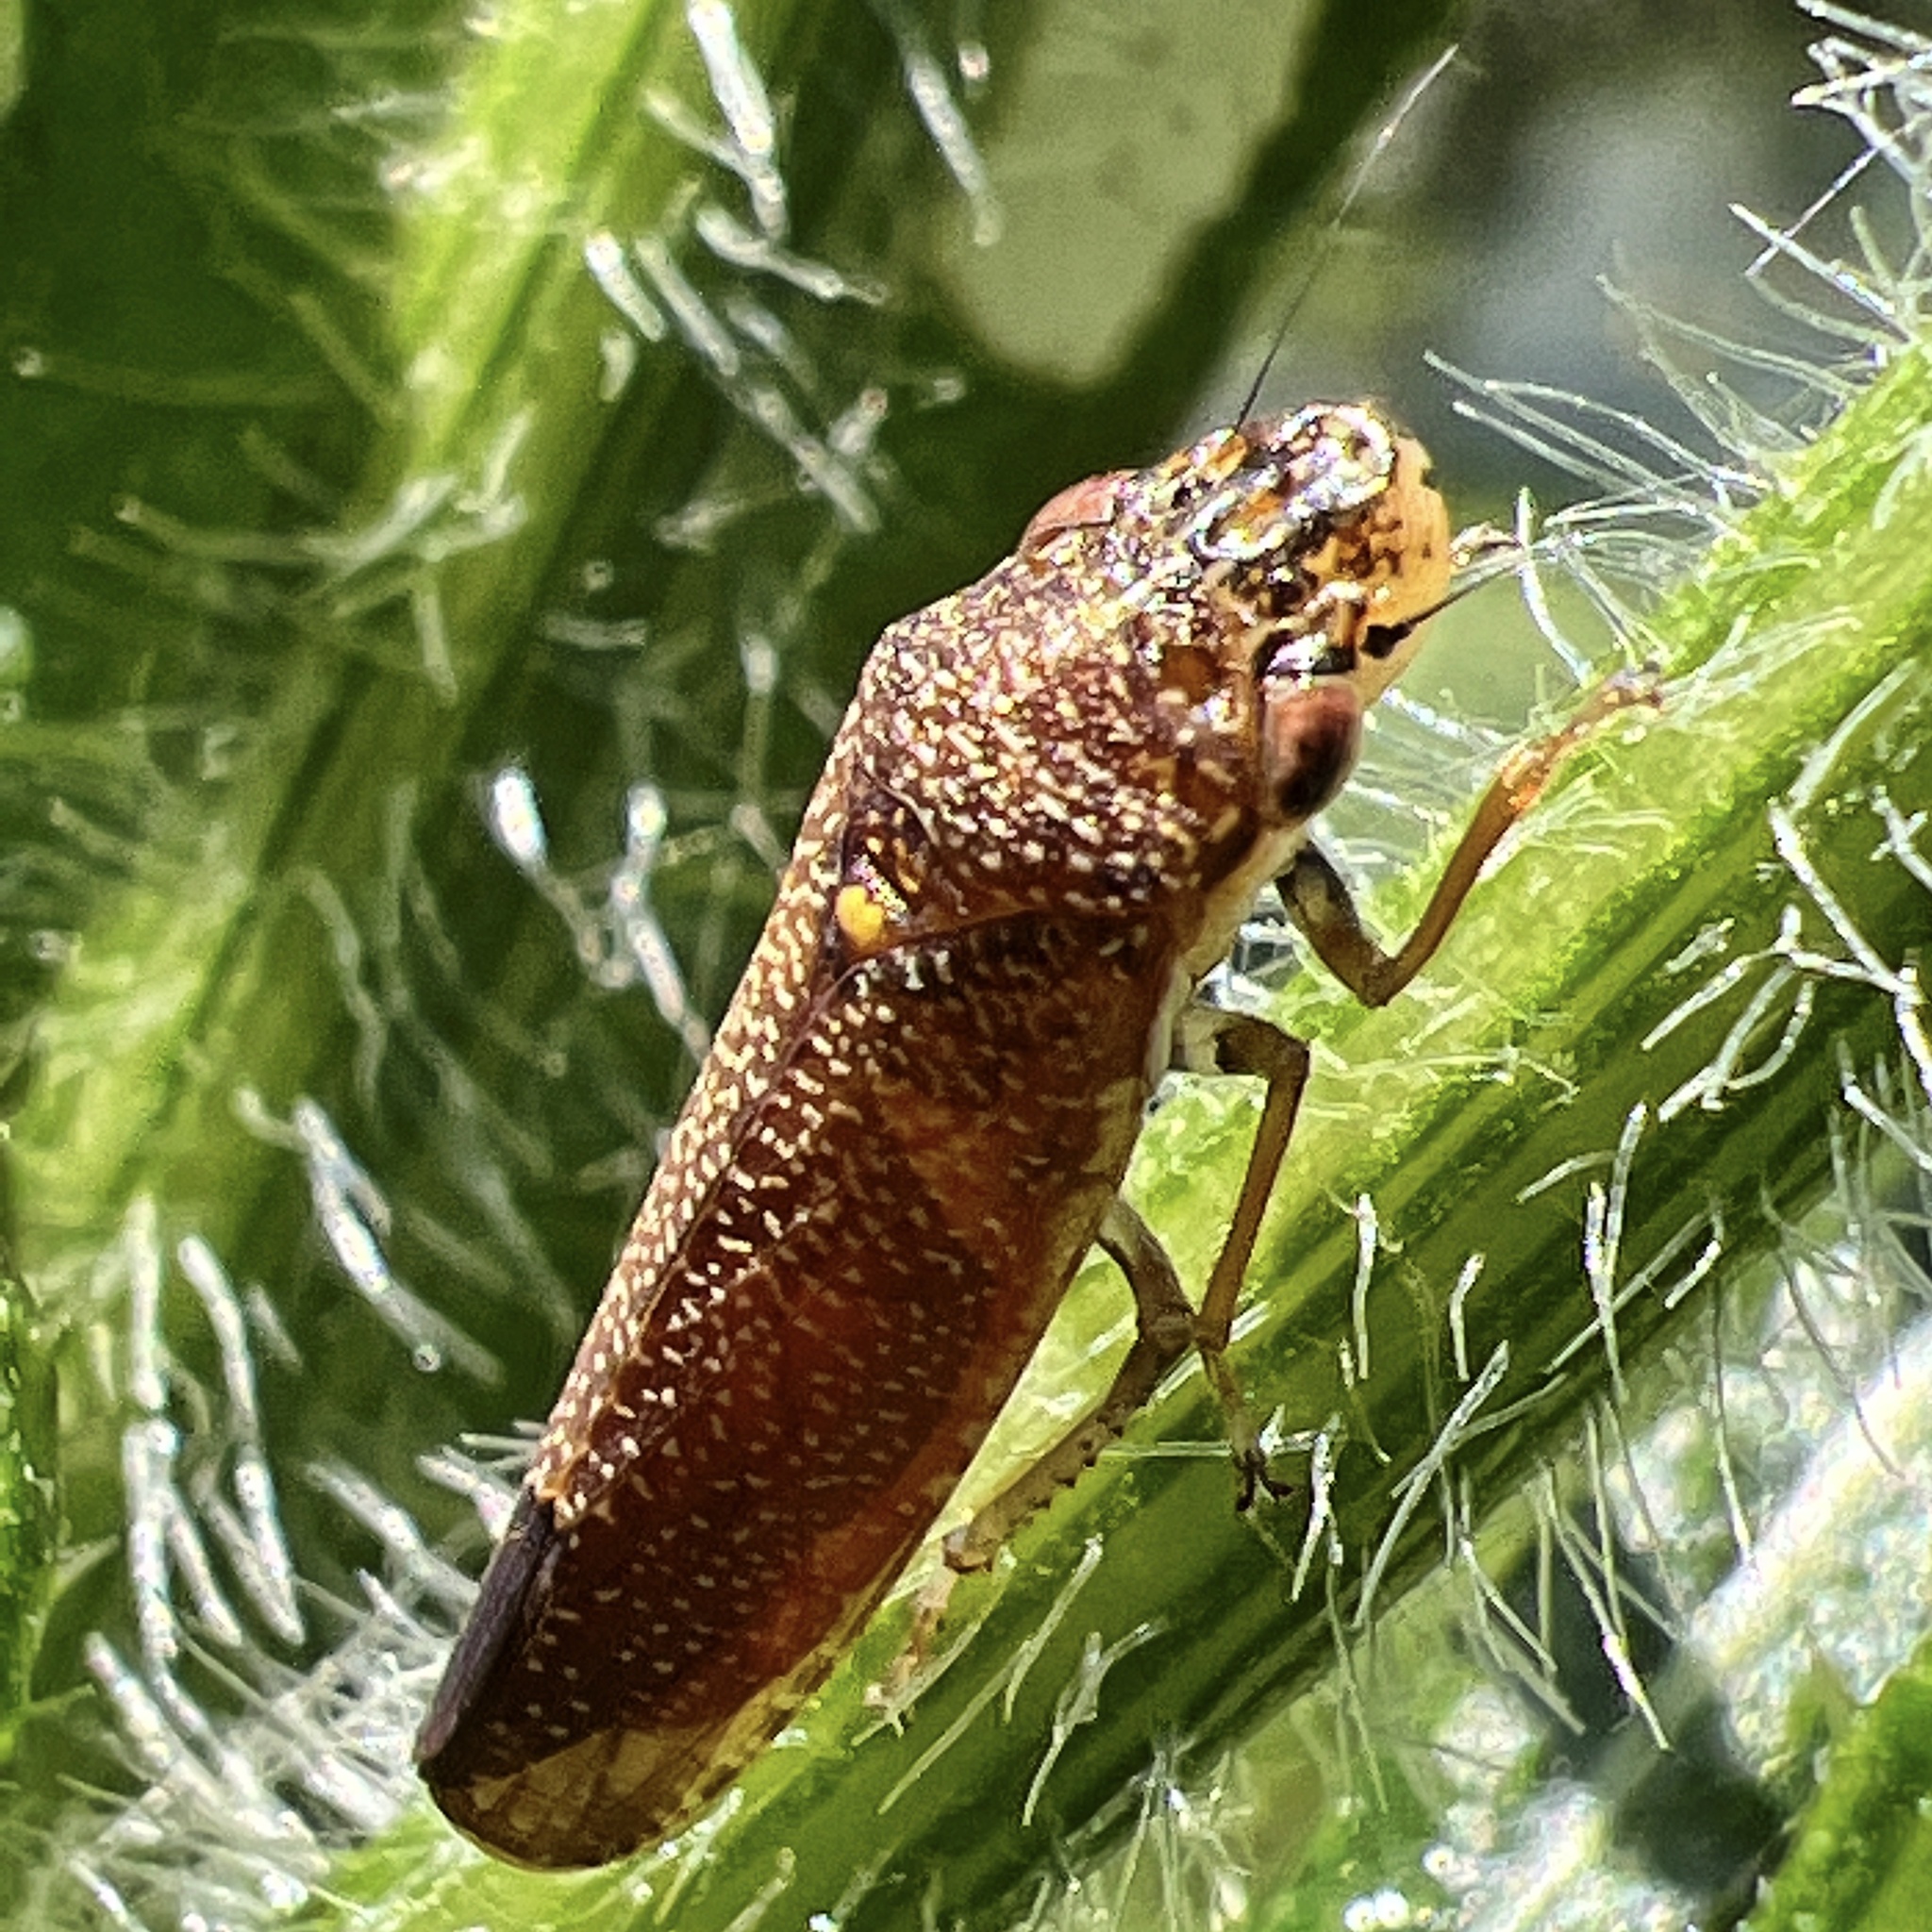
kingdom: Animalia
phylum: Arthropoda
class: Insecta
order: Hemiptera
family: Cicadellidae
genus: Paraulacizes
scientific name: Paraulacizes irrorata
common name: Speckled sharpshooter
